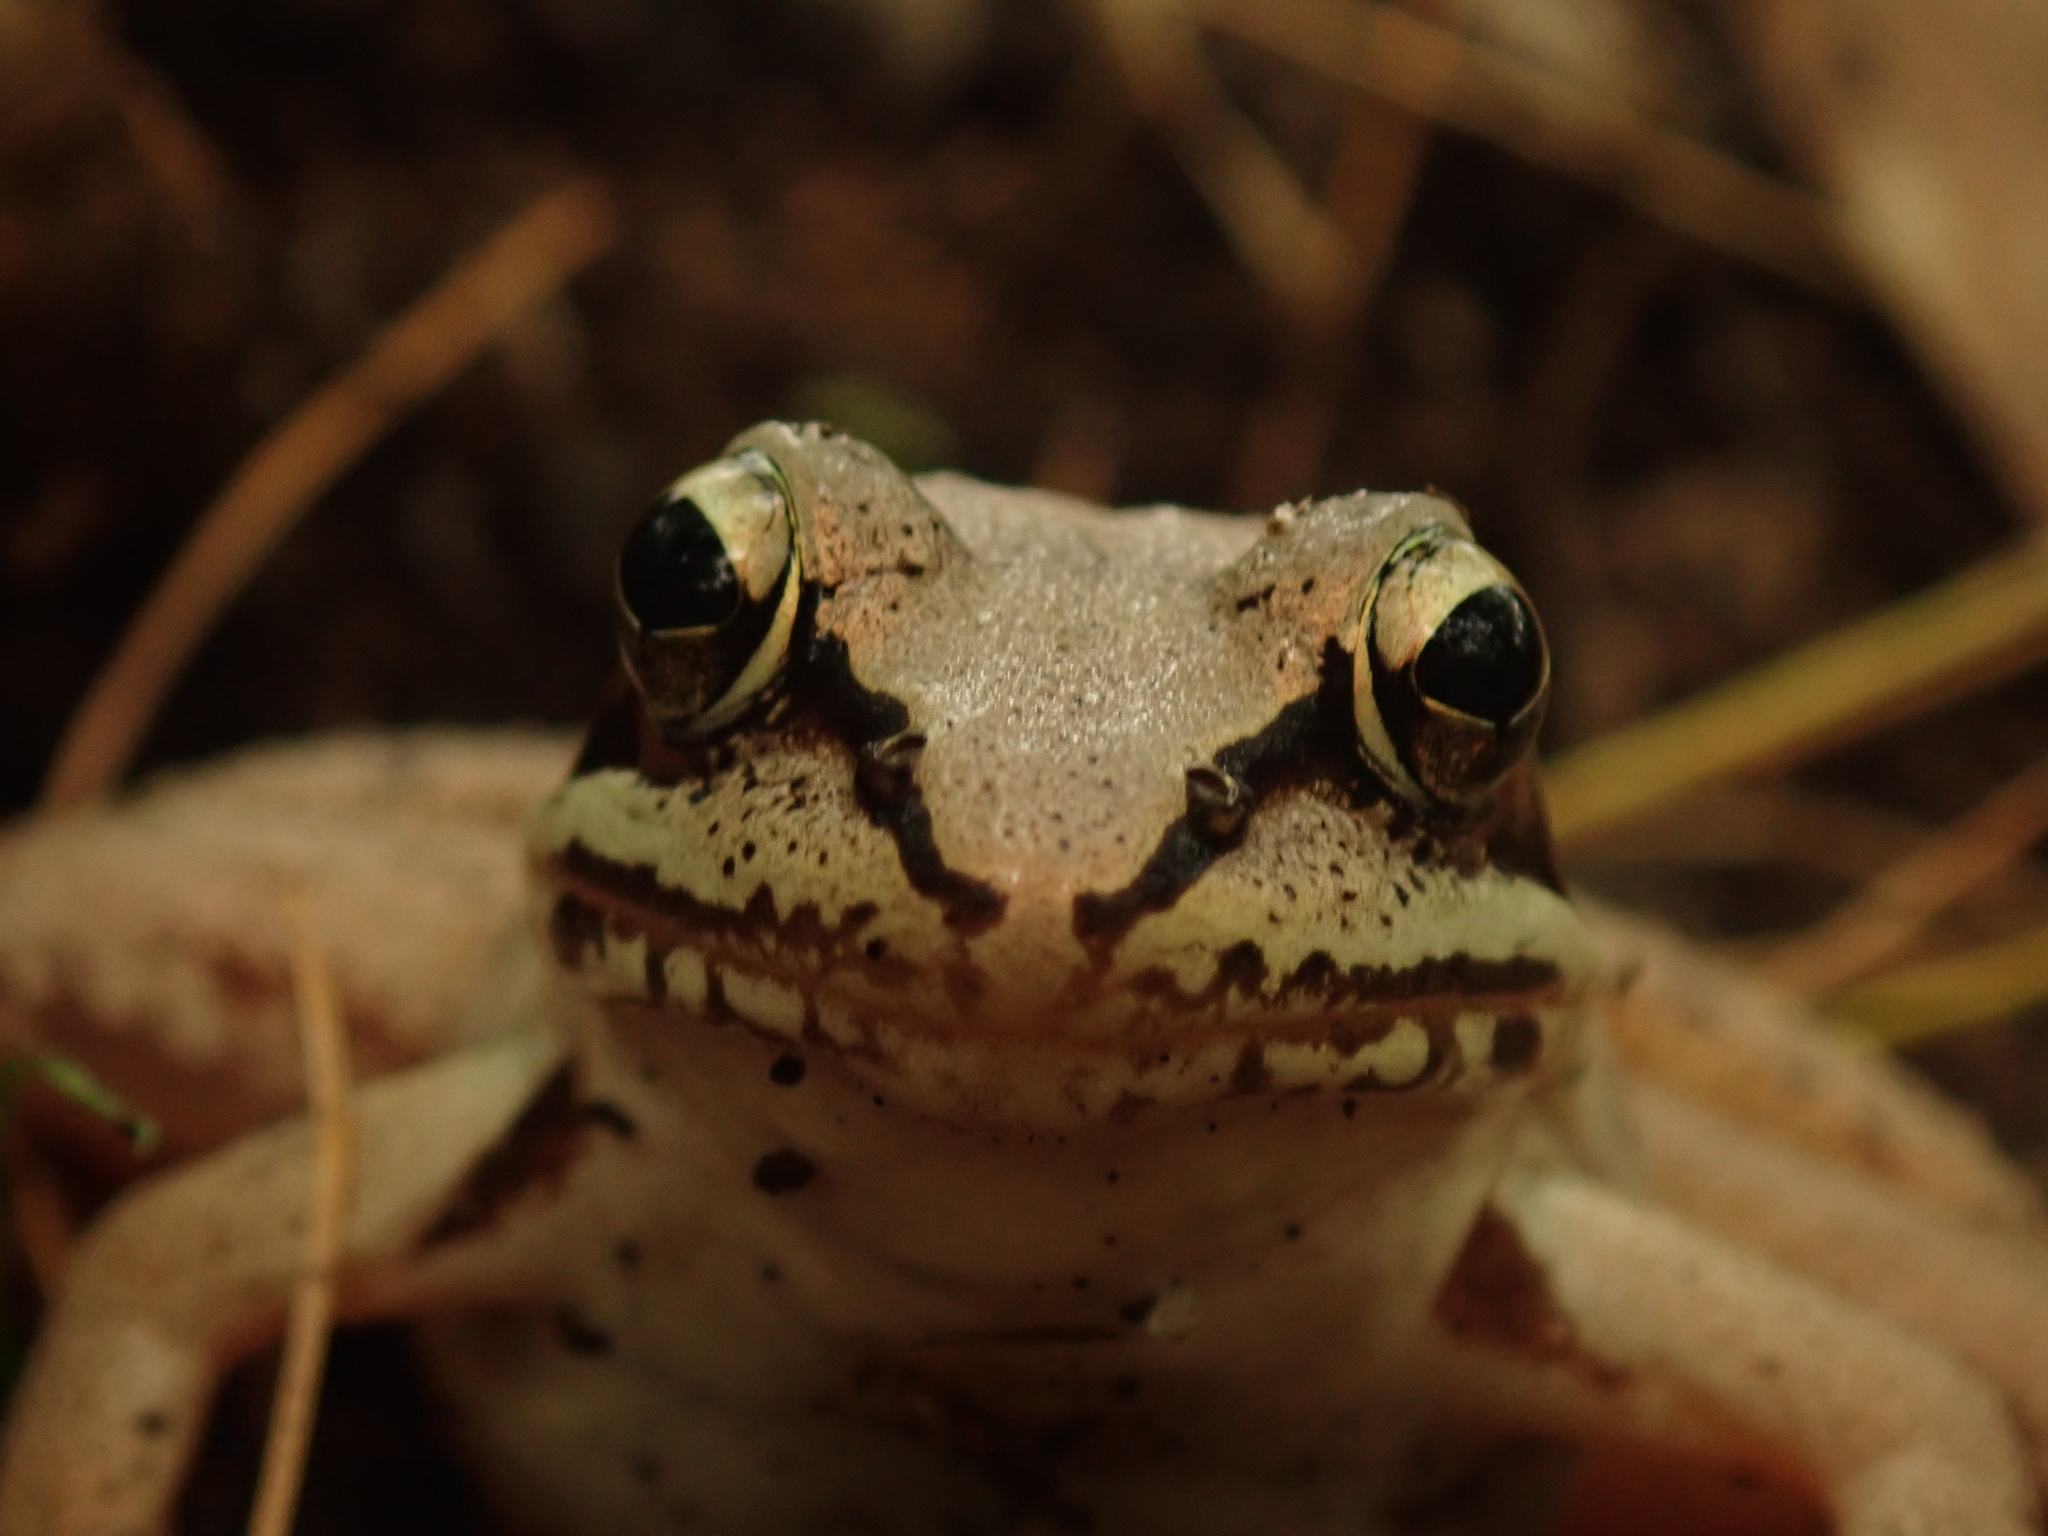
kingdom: Animalia
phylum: Chordata
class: Amphibia
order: Anura
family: Ranidae
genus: Lithobates
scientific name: Lithobates sylvaticus
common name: Wood frog
